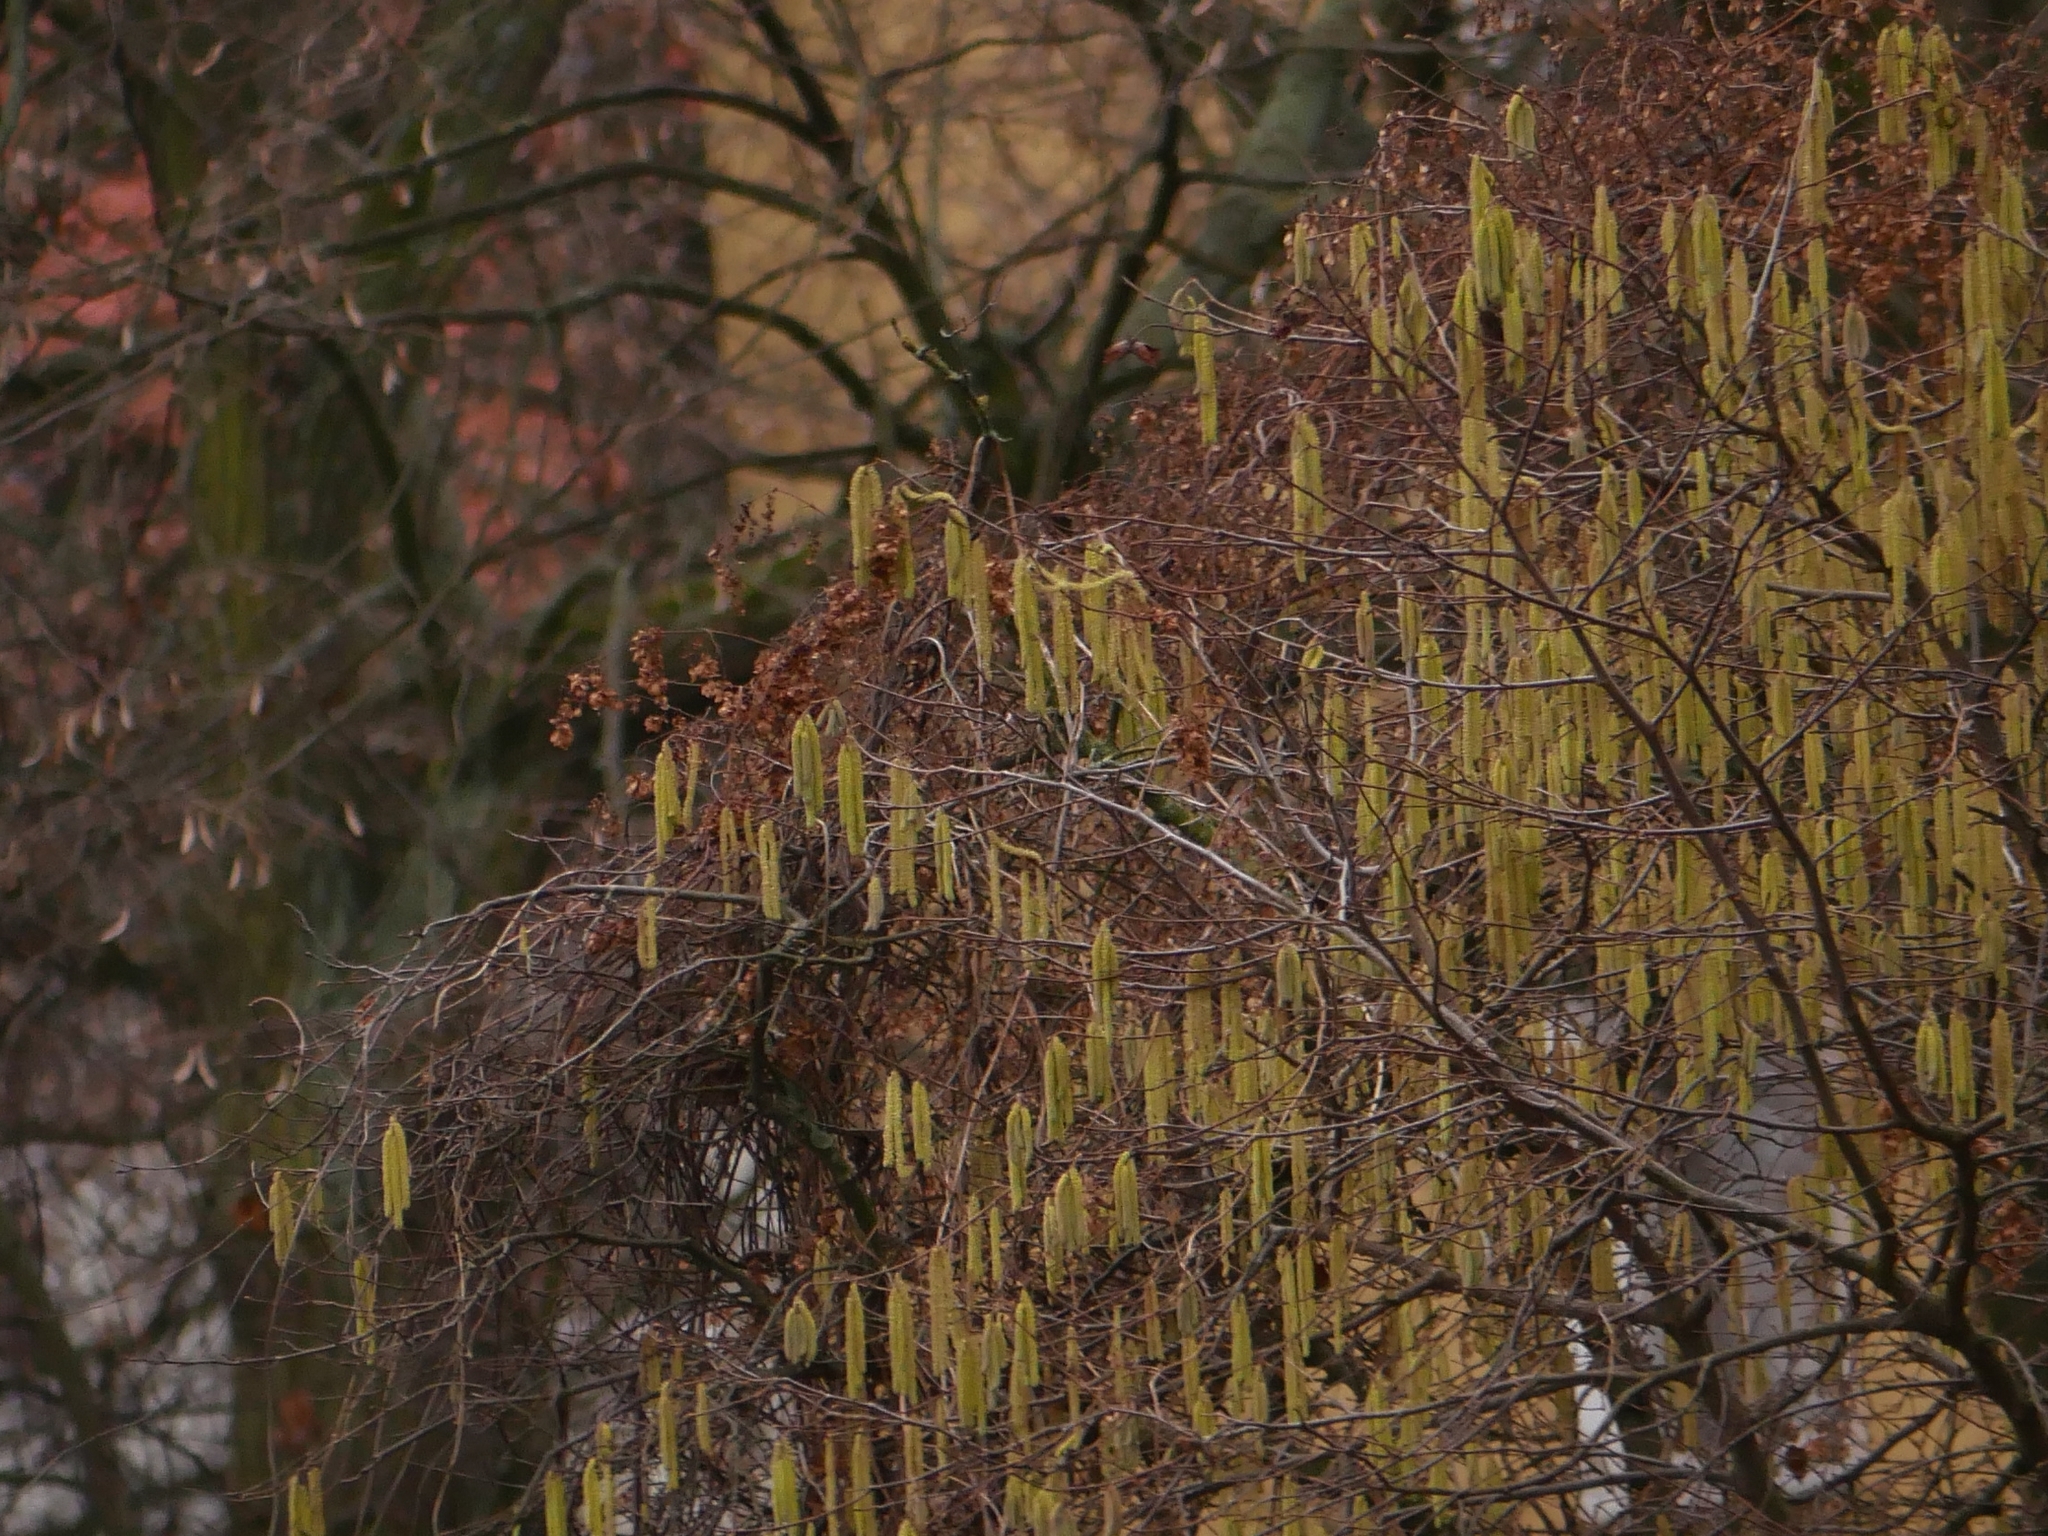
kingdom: Plantae
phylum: Tracheophyta
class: Magnoliopsida
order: Fagales
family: Betulaceae
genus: Corylus
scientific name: Corylus avellana
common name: European hazel
